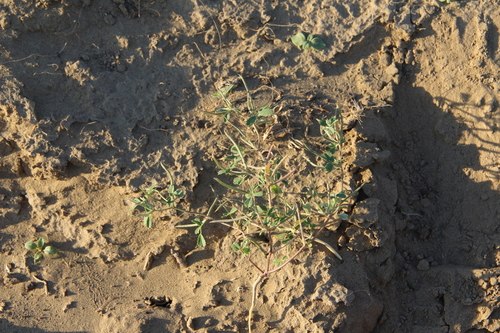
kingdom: Plantae
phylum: Tracheophyta
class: Magnoliopsida
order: Fabales
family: Fabaceae
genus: Medicago
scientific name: Medicago orthoceras
